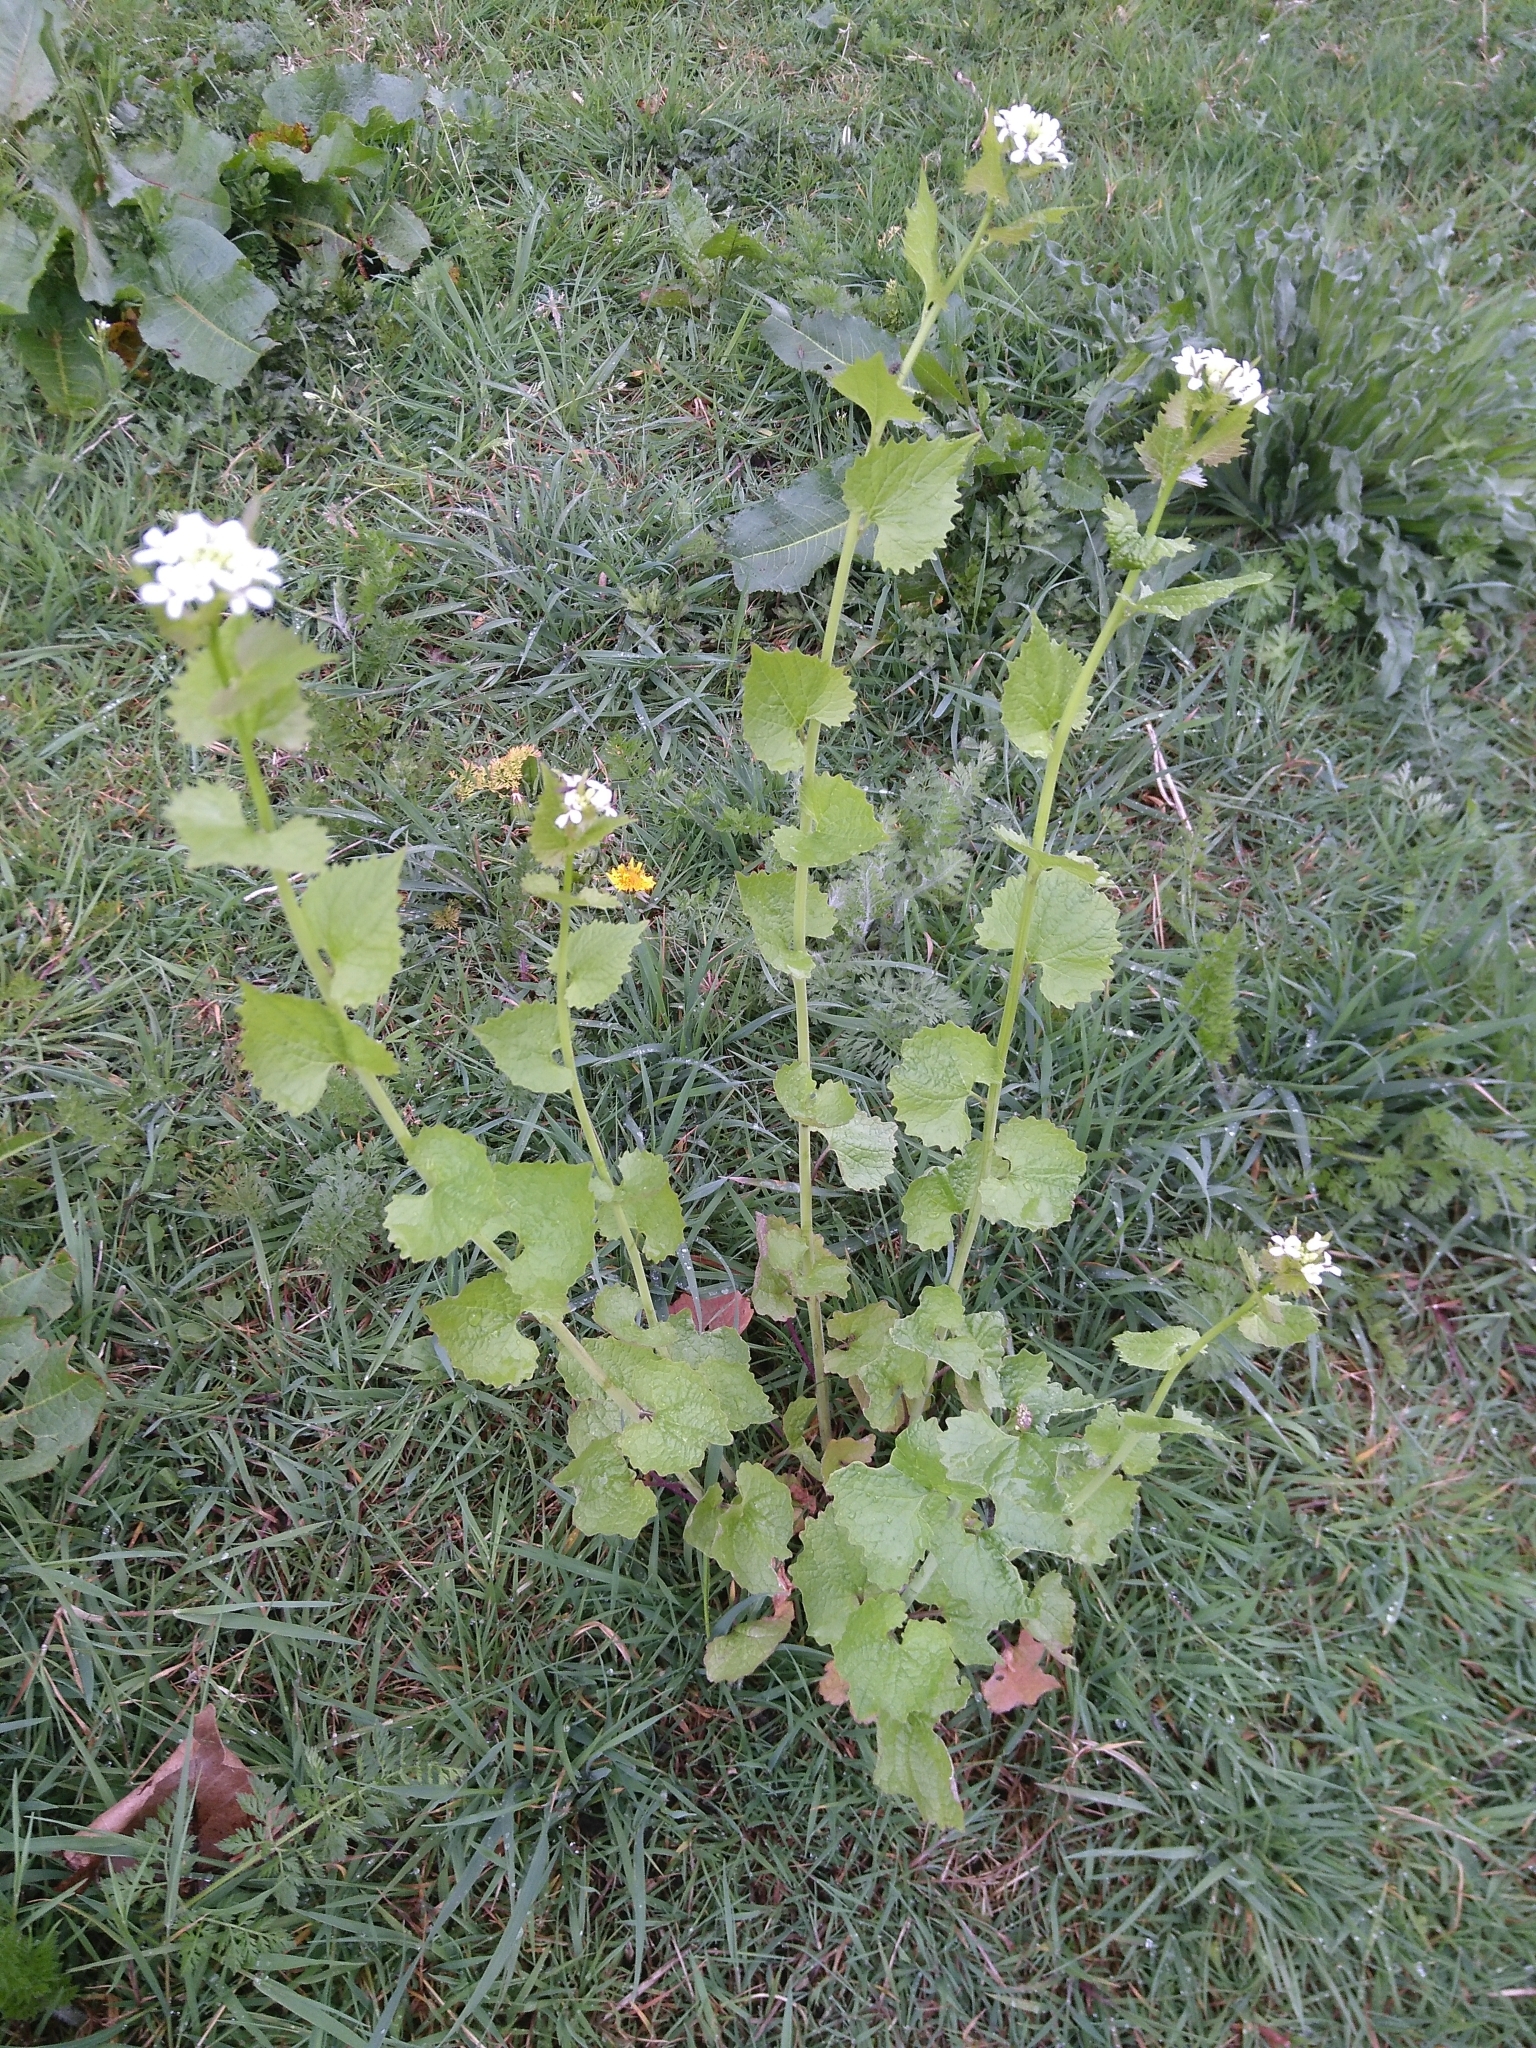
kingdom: Plantae
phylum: Tracheophyta
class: Magnoliopsida
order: Brassicales
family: Brassicaceae
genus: Alliaria
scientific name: Alliaria petiolata
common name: Garlic mustard
